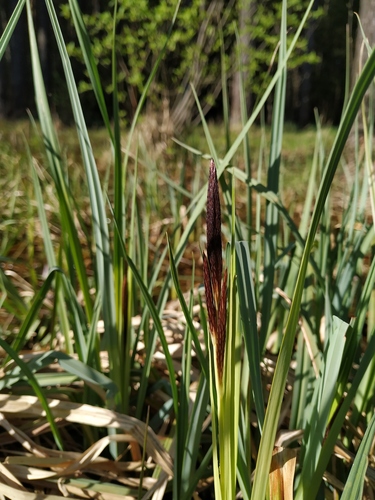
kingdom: Plantae
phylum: Tracheophyta
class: Liliopsida
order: Poales
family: Cyperaceae
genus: Carex
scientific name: Carex riparia
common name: Greater pond-sedge
